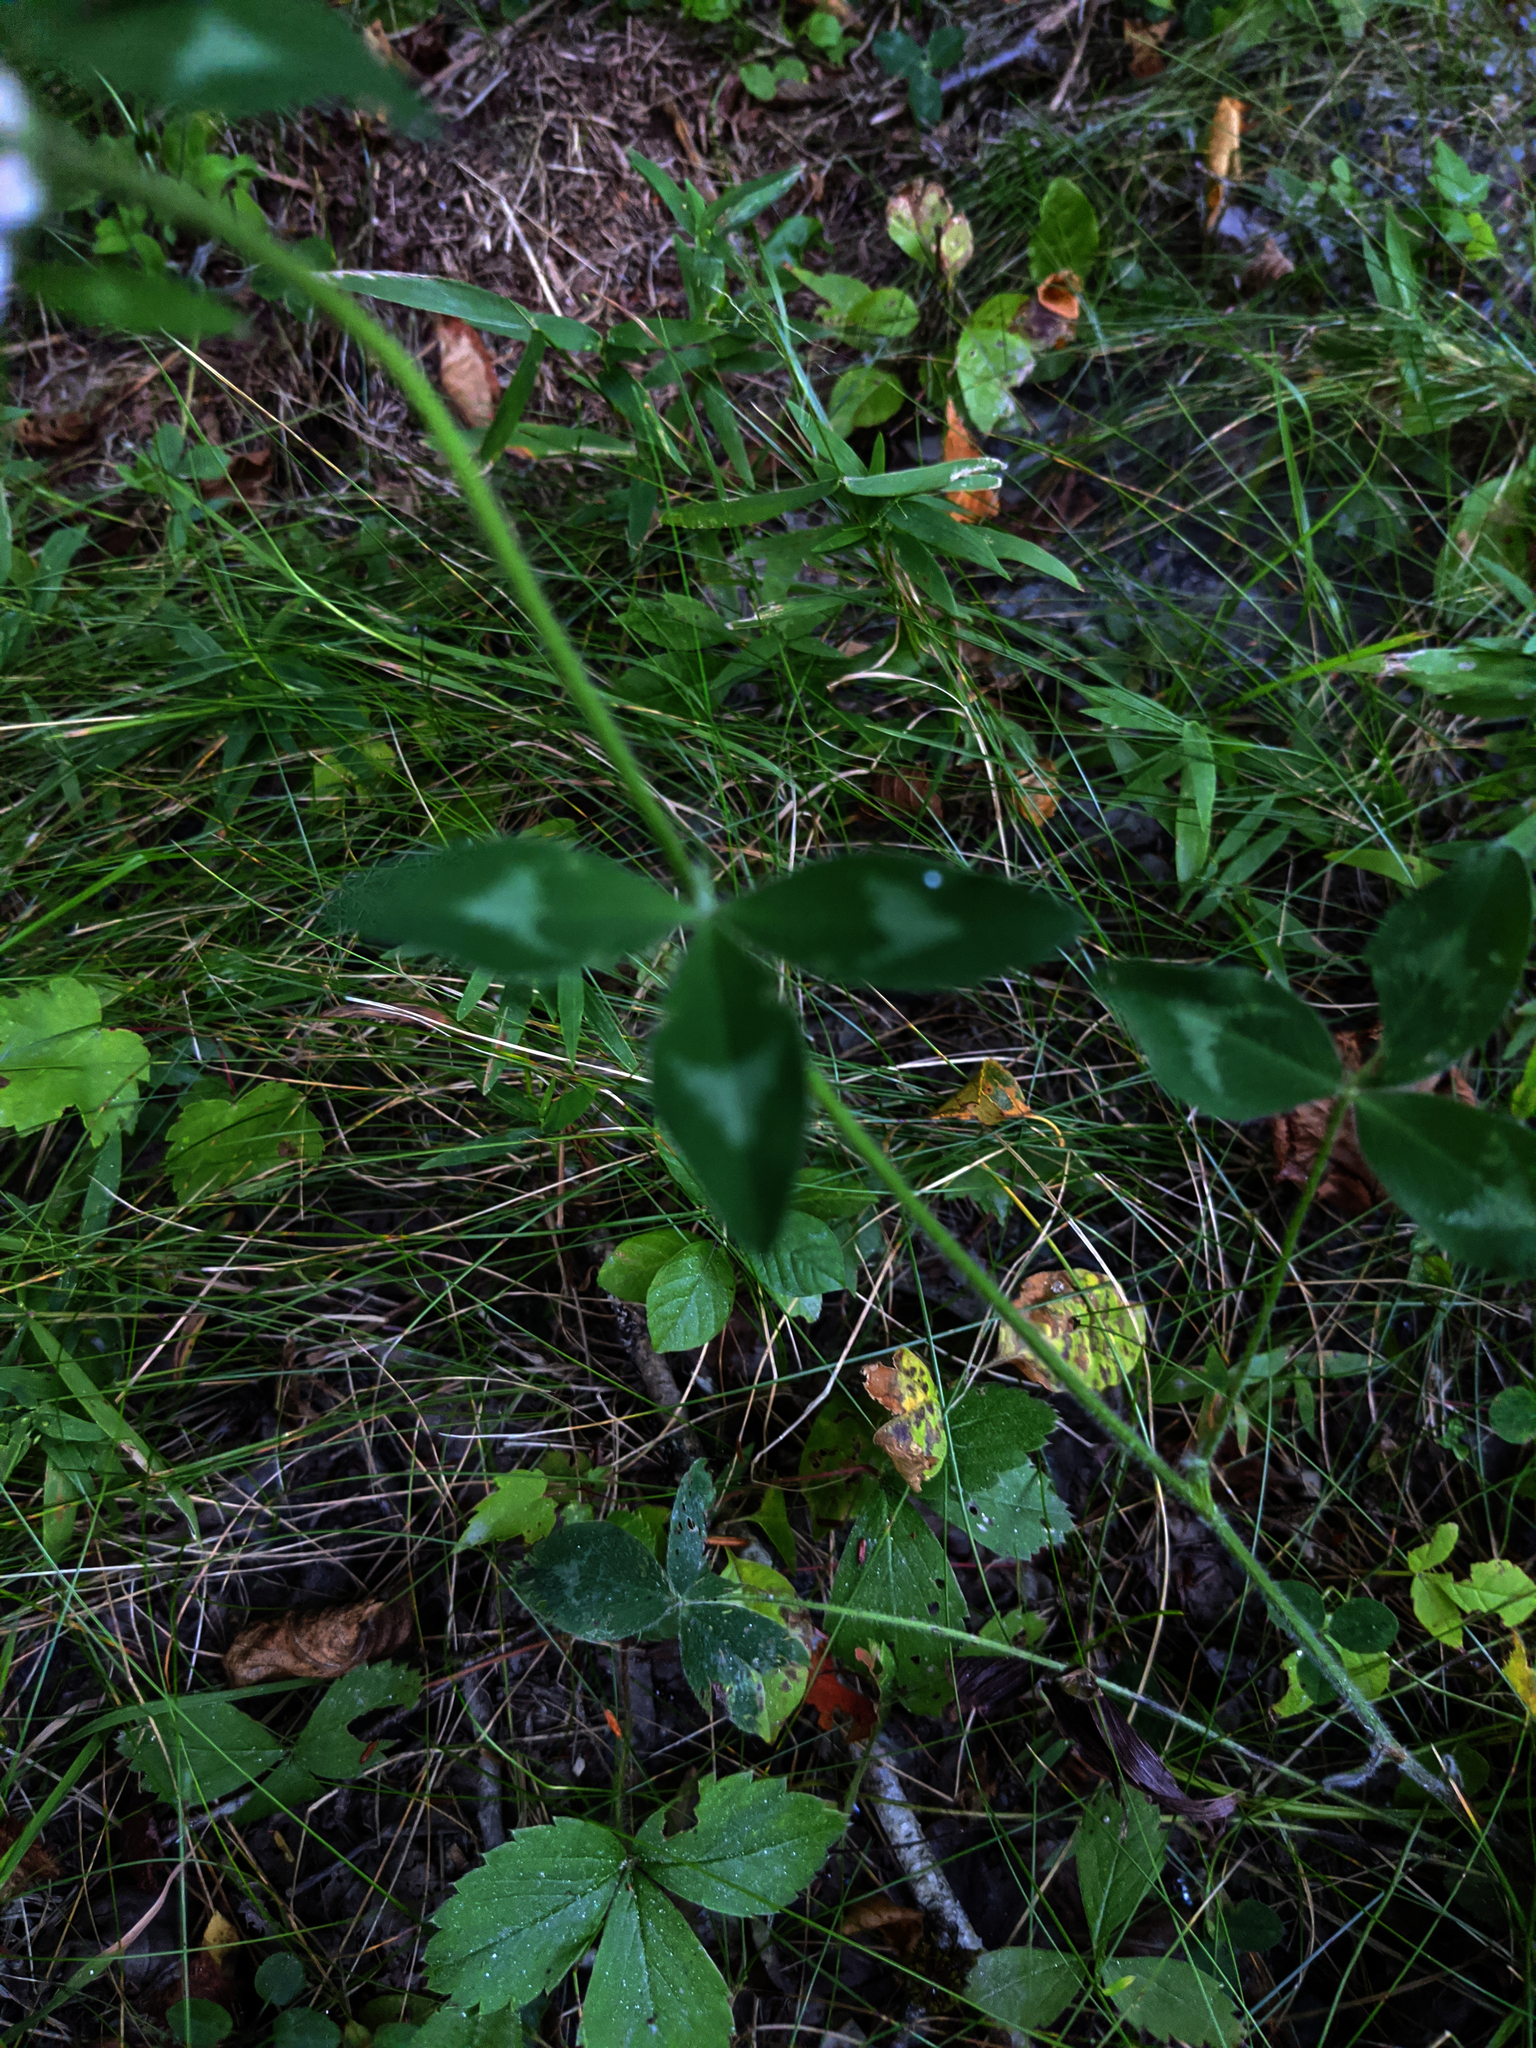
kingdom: Plantae
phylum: Tracheophyta
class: Magnoliopsida
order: Fabales
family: Fabaceae
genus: Trifolium
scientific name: Trifolium pratense
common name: Red clover
